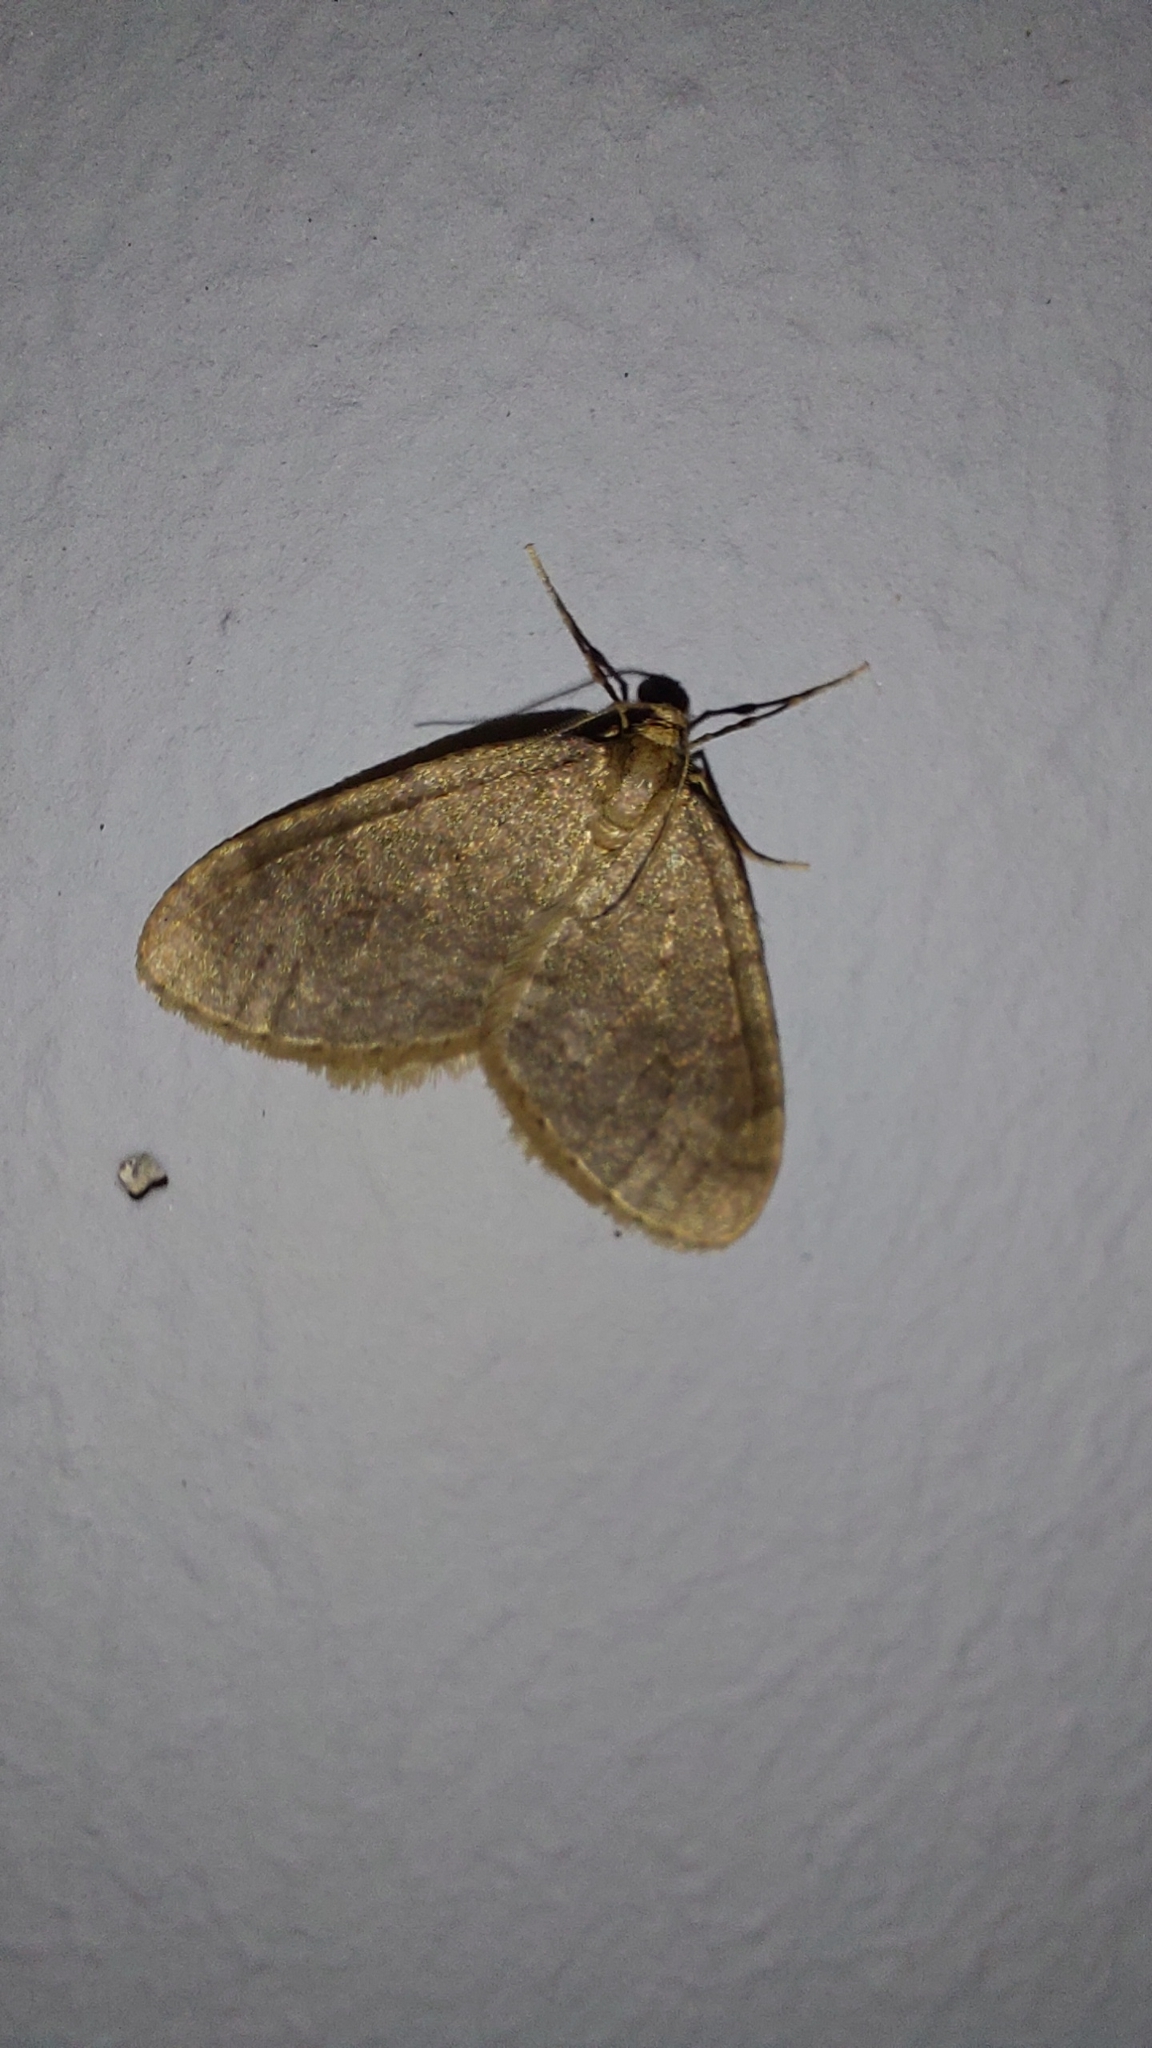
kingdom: Animalia
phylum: Arthropoda
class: Insecta
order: Lepidoptera
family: Geometridae
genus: Operophtera
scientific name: Operophtera brumata
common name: Winter moth
